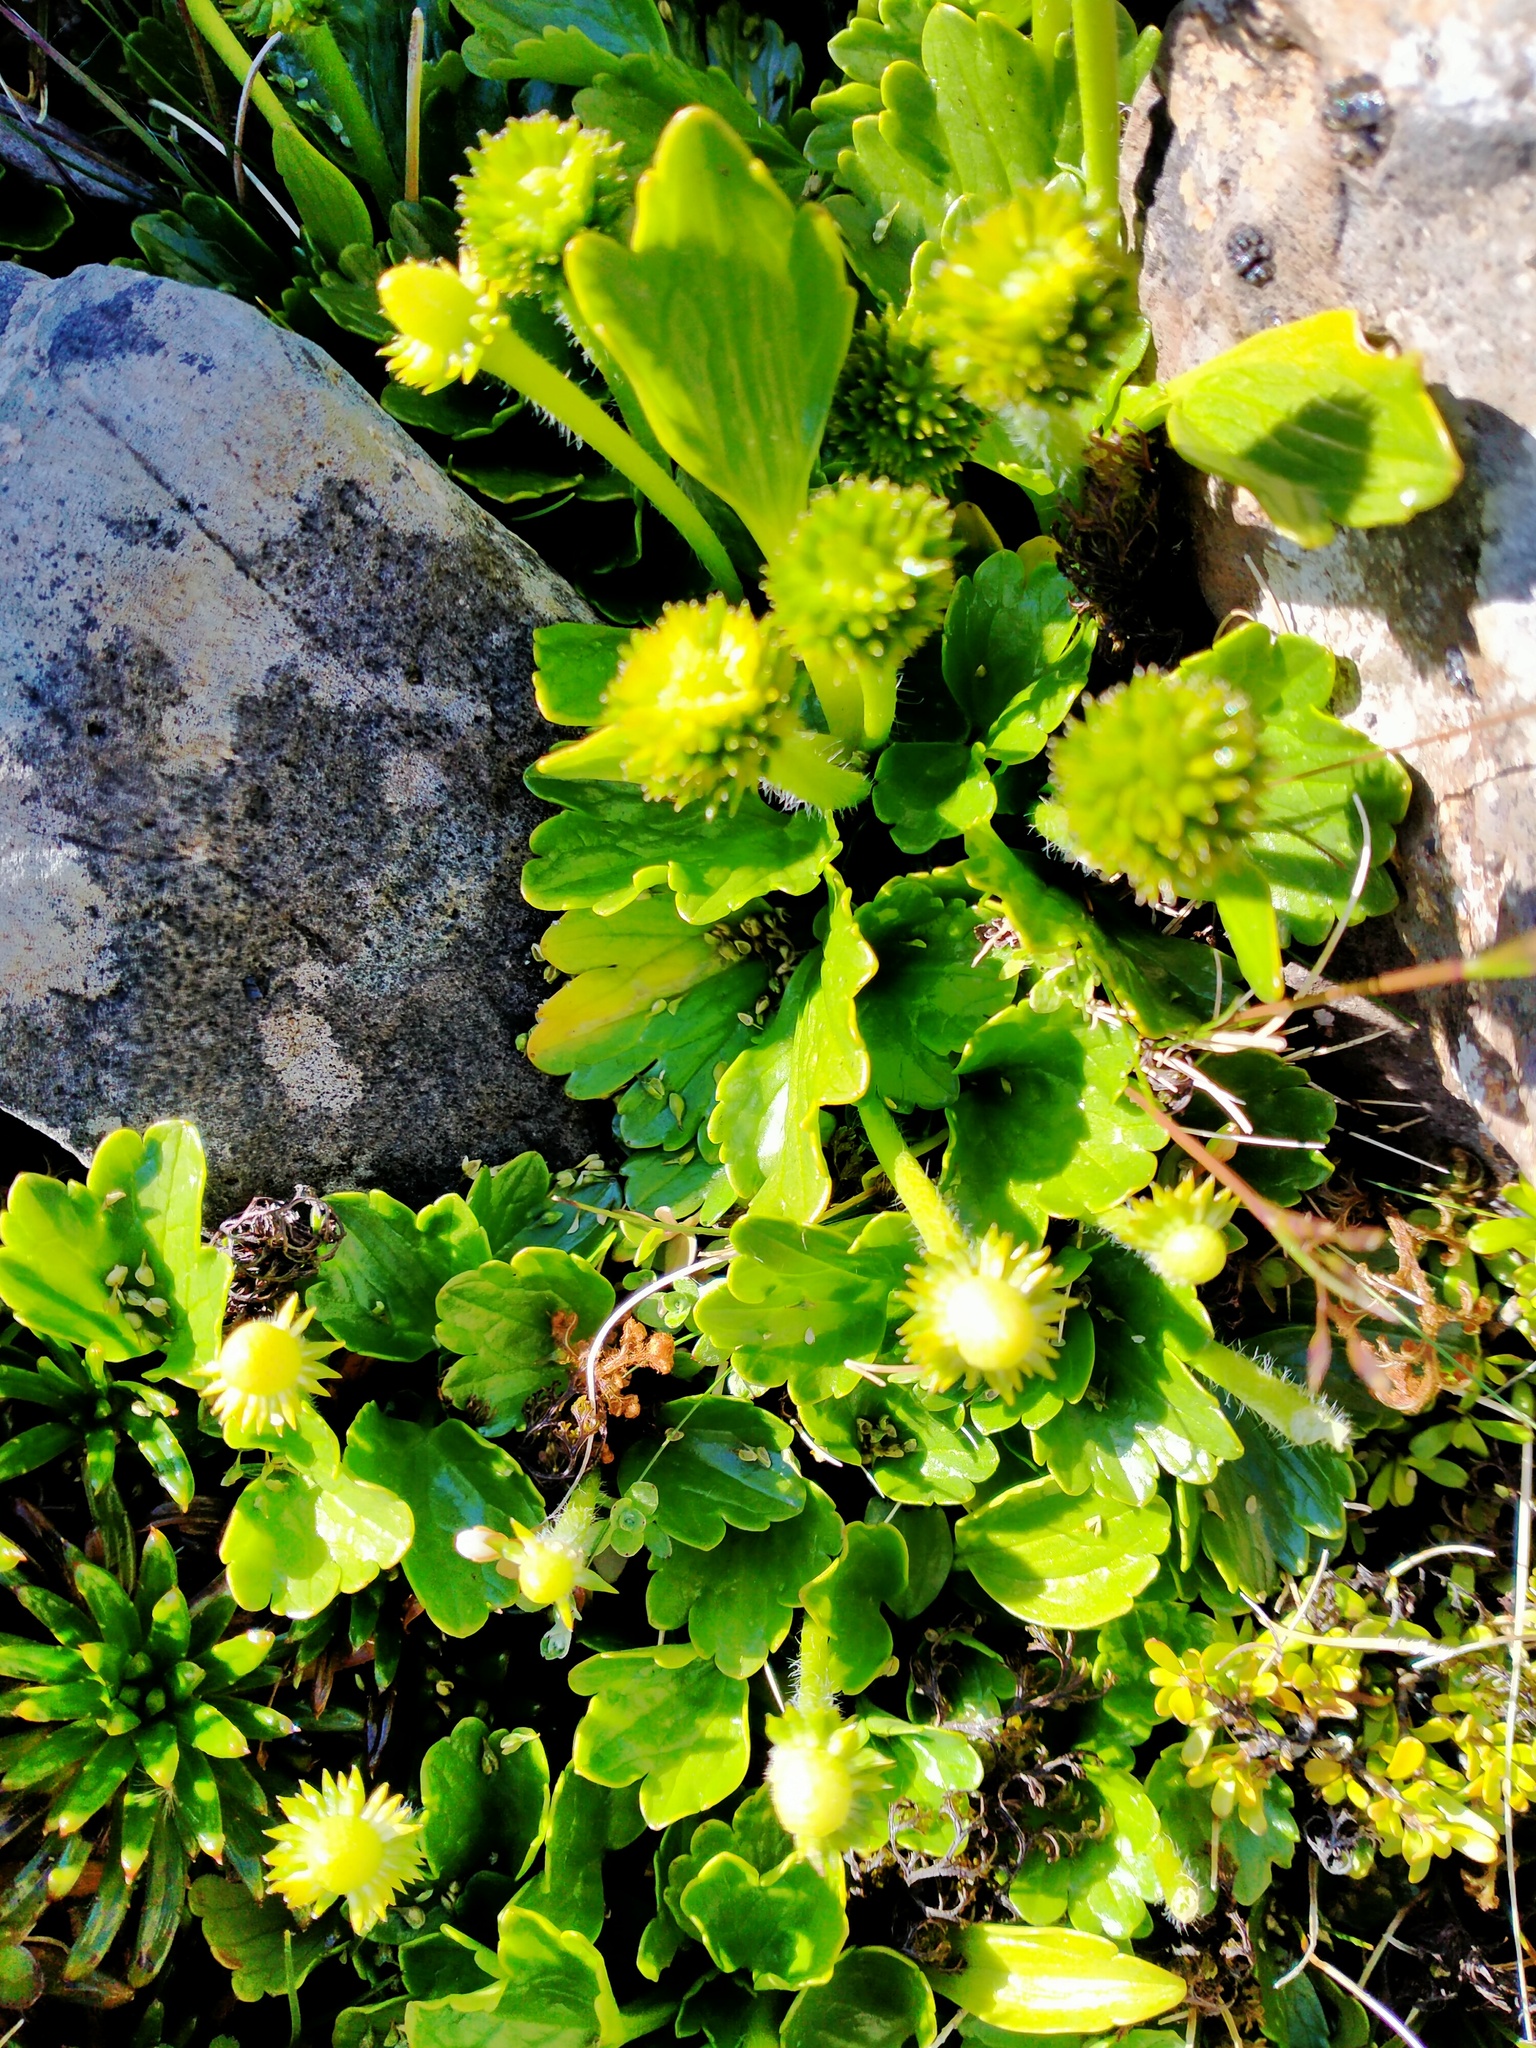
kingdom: Plantae
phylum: Tracheophyta
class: Magnoliopsida
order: Ranunculales
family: Ranunculaceae
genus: Ranunculus
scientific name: Ranunculus pinguis
